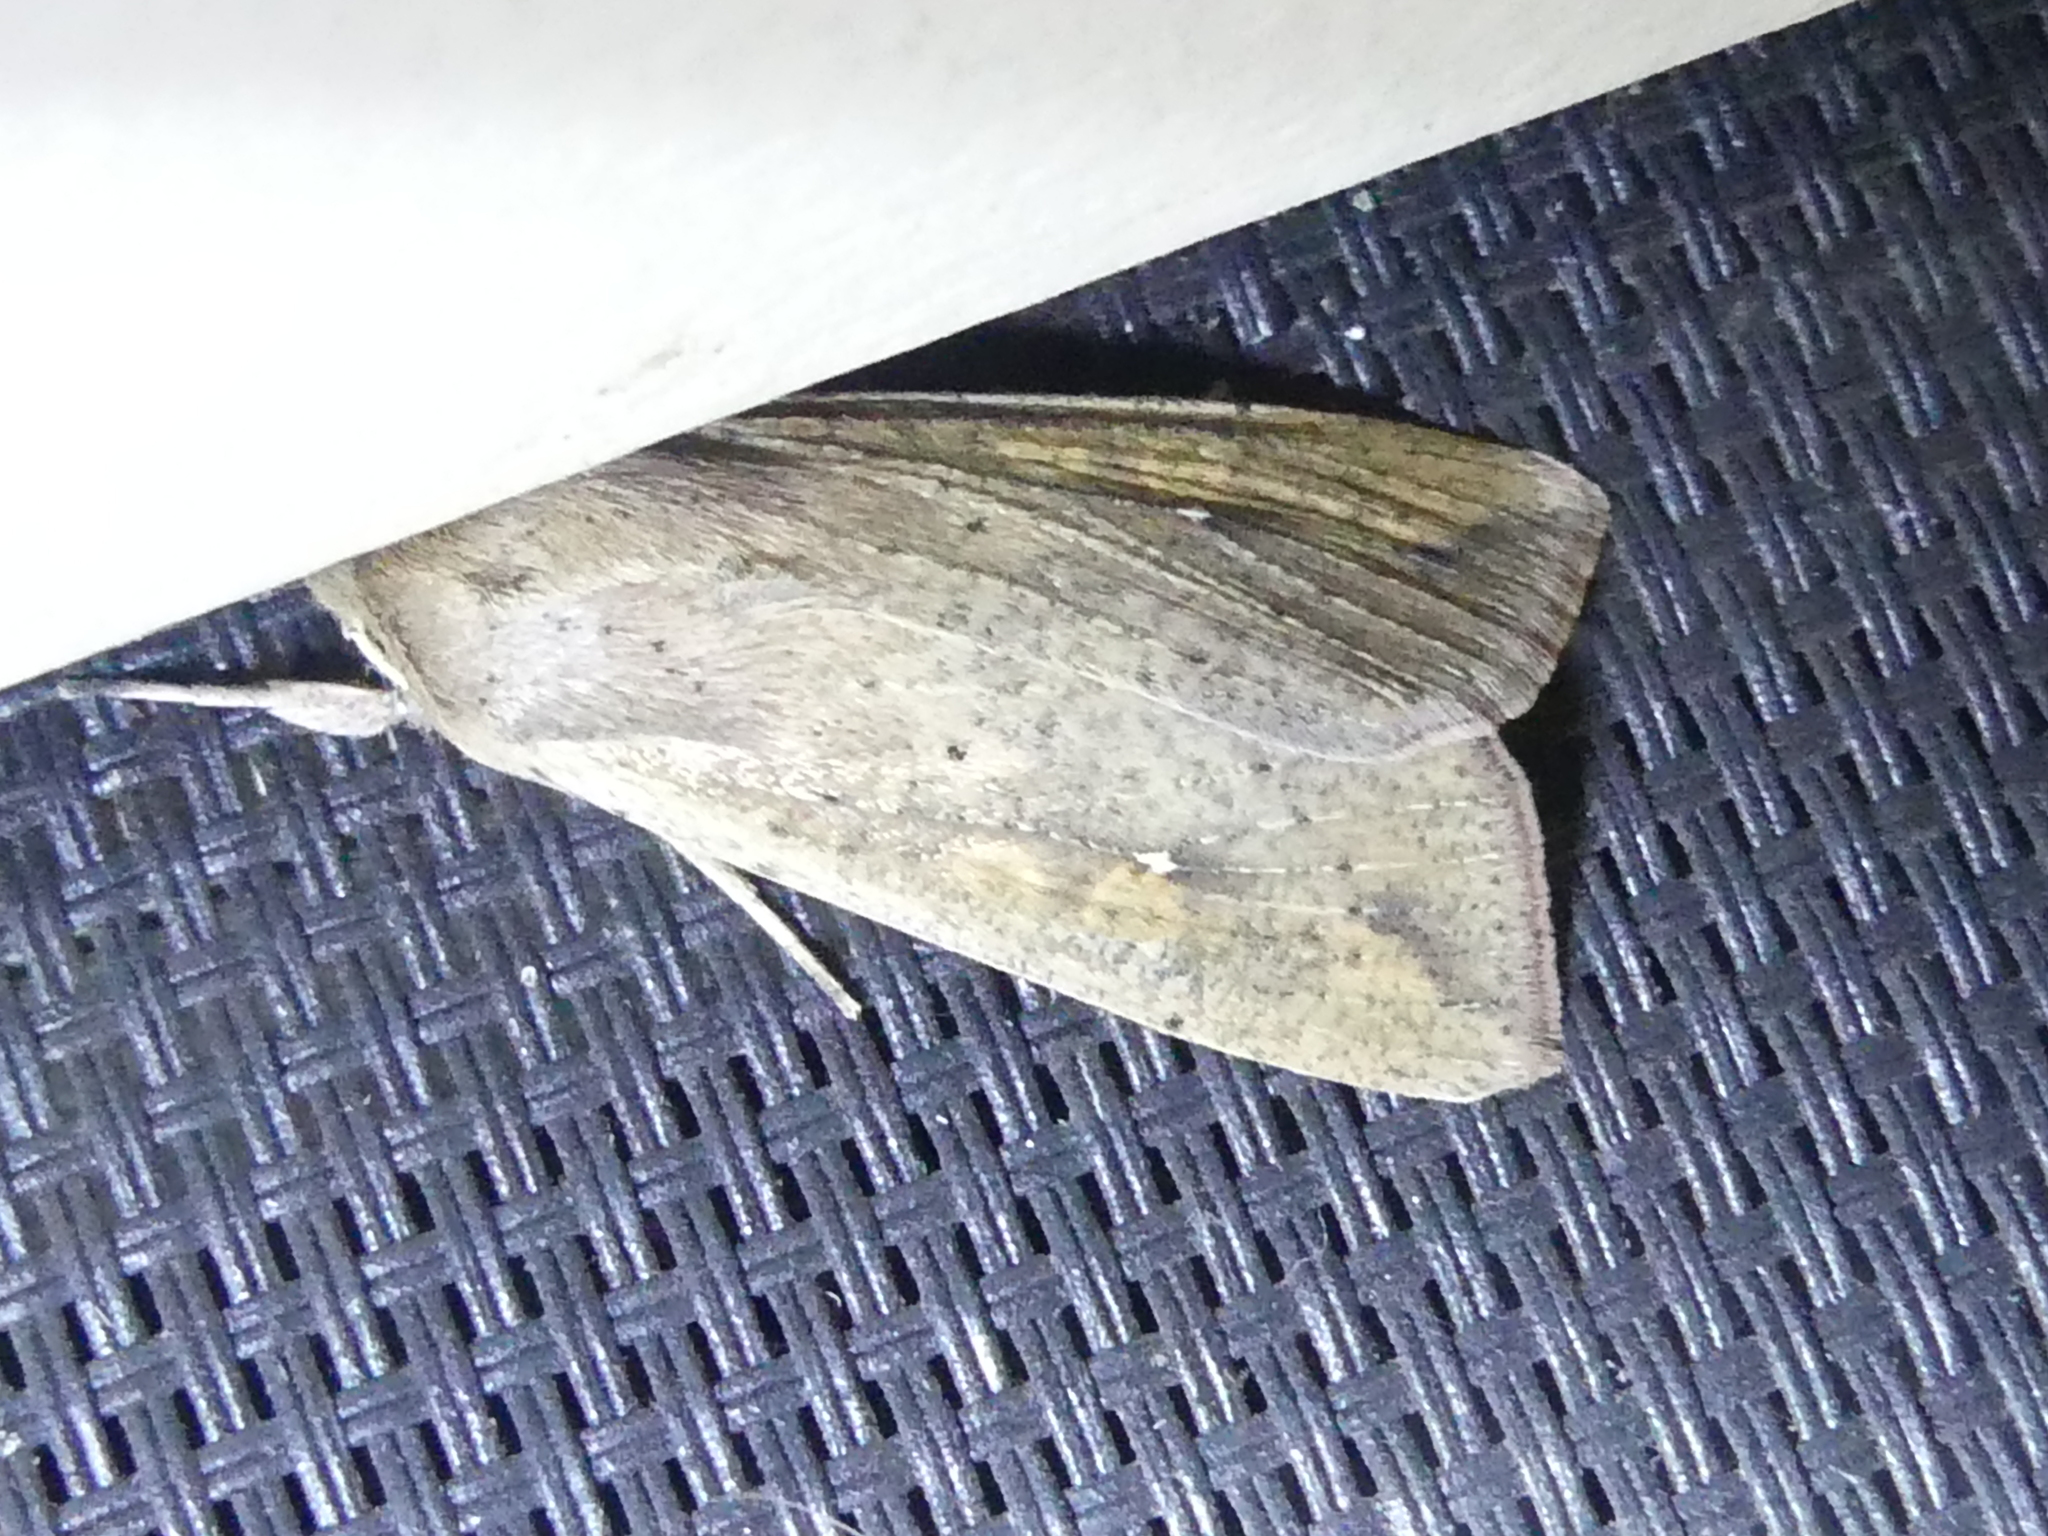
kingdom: Animalia
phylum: Arthropoda
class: Insecta
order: Lepidoptera
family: Noctuidae
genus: Mythimna
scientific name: Mythimna unipuncta
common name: White-speck
